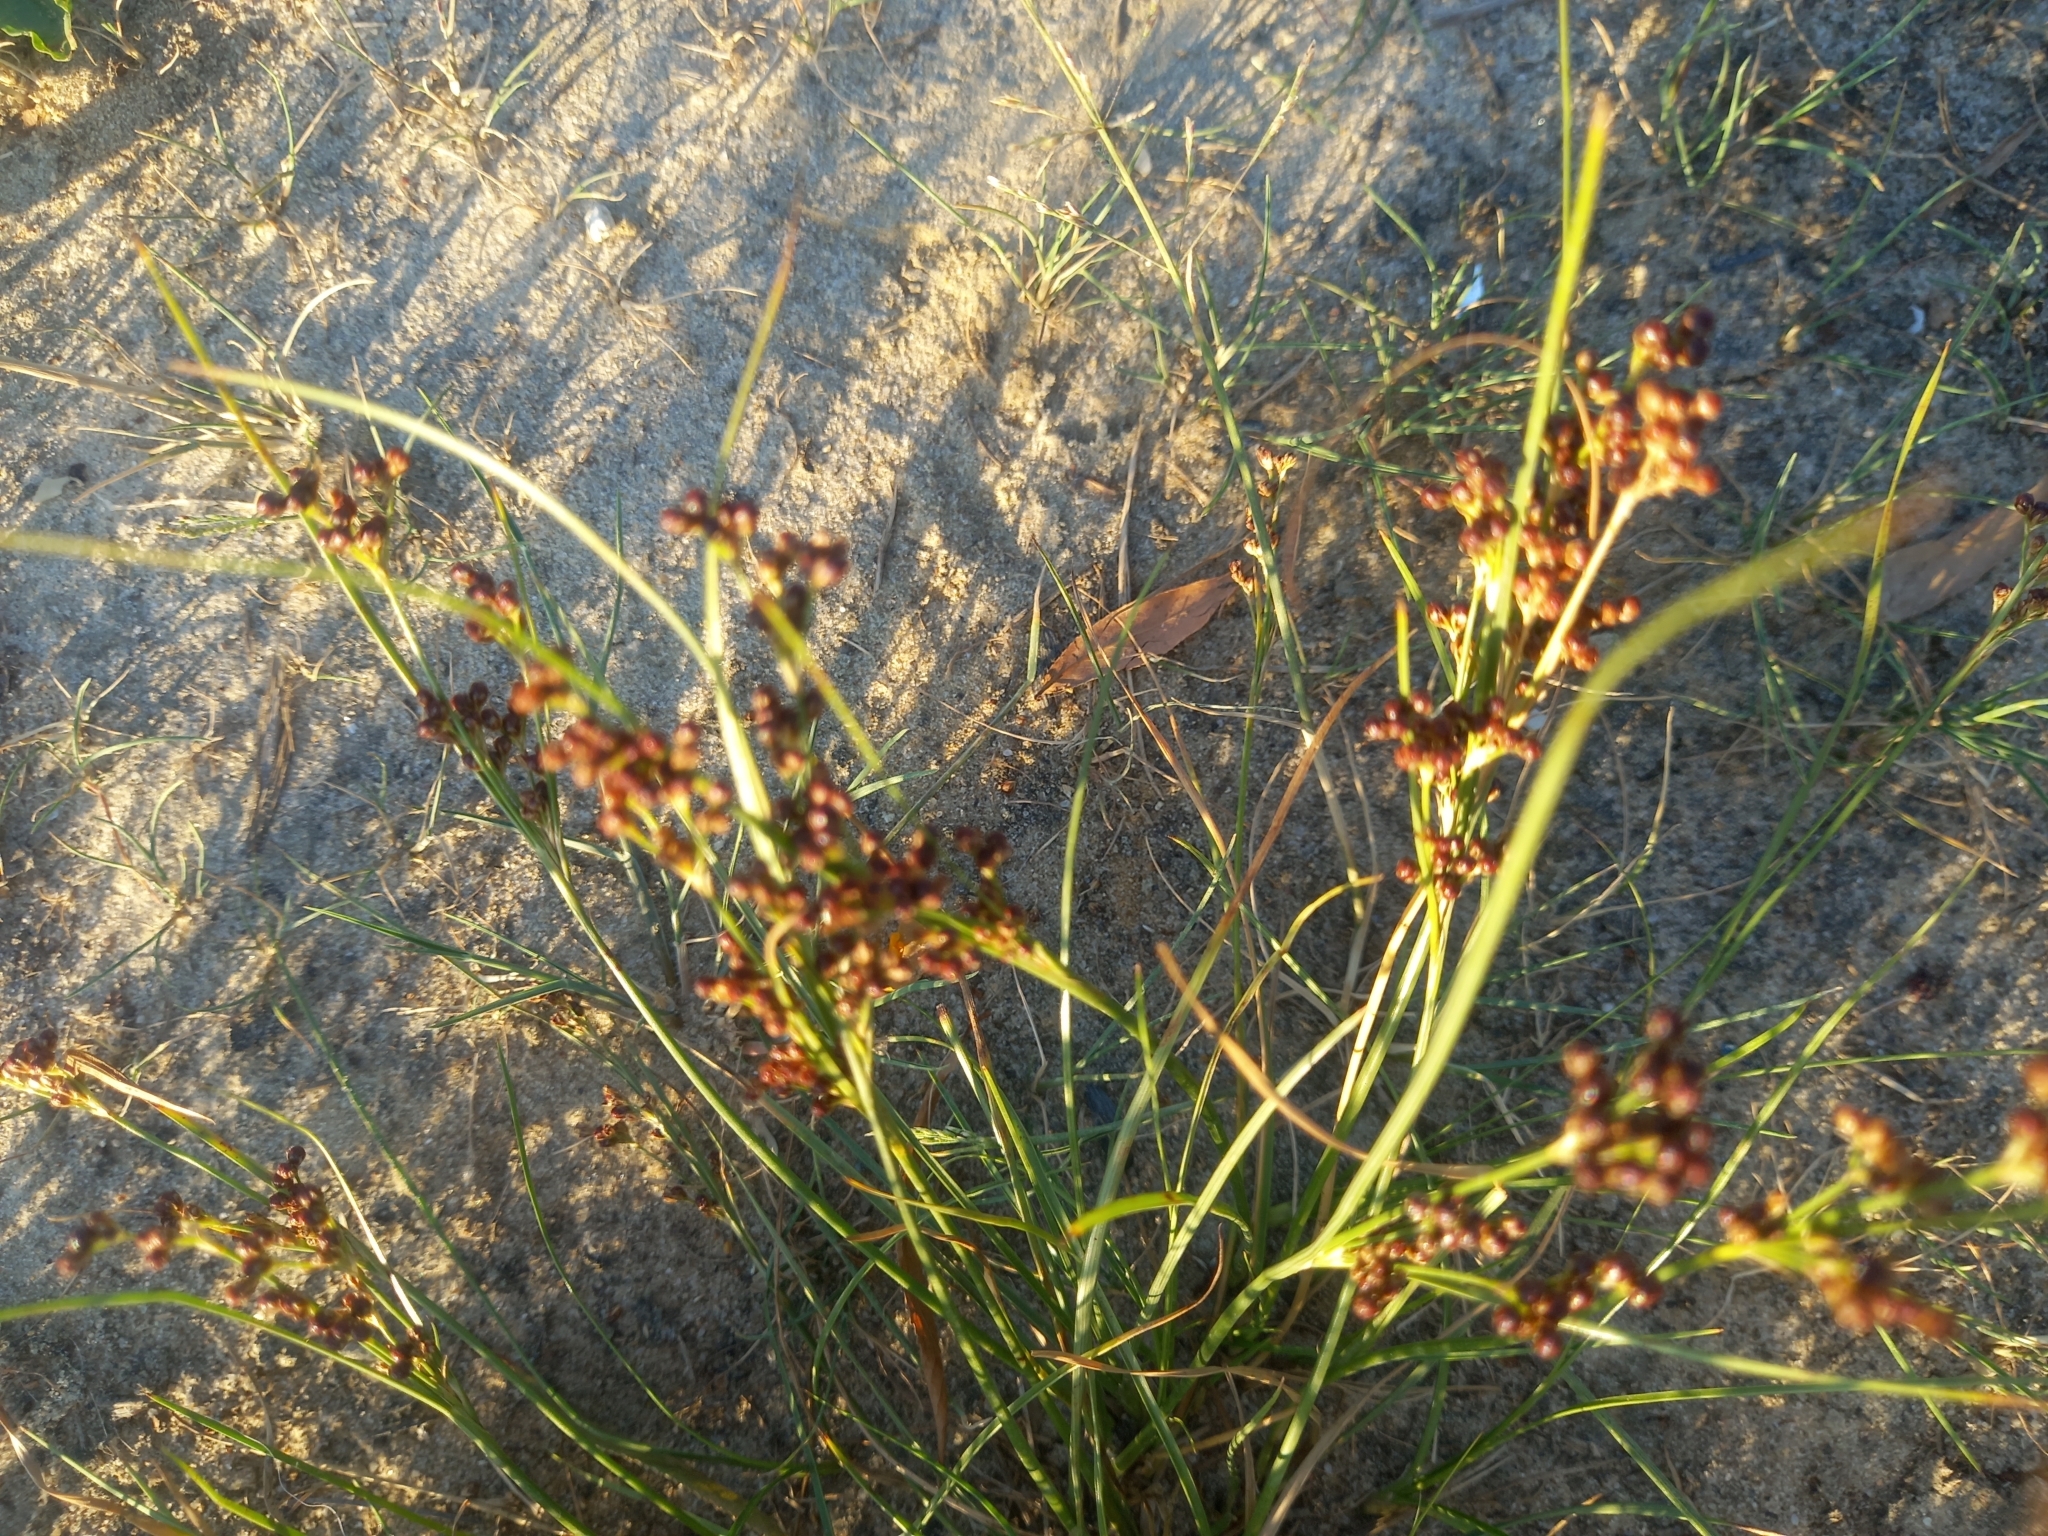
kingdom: Plantae
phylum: Tracheophyta
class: Liliopsida
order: Poales
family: Juncaceae
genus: Juncus
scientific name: Juncus compressus
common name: Round-fruited rush
